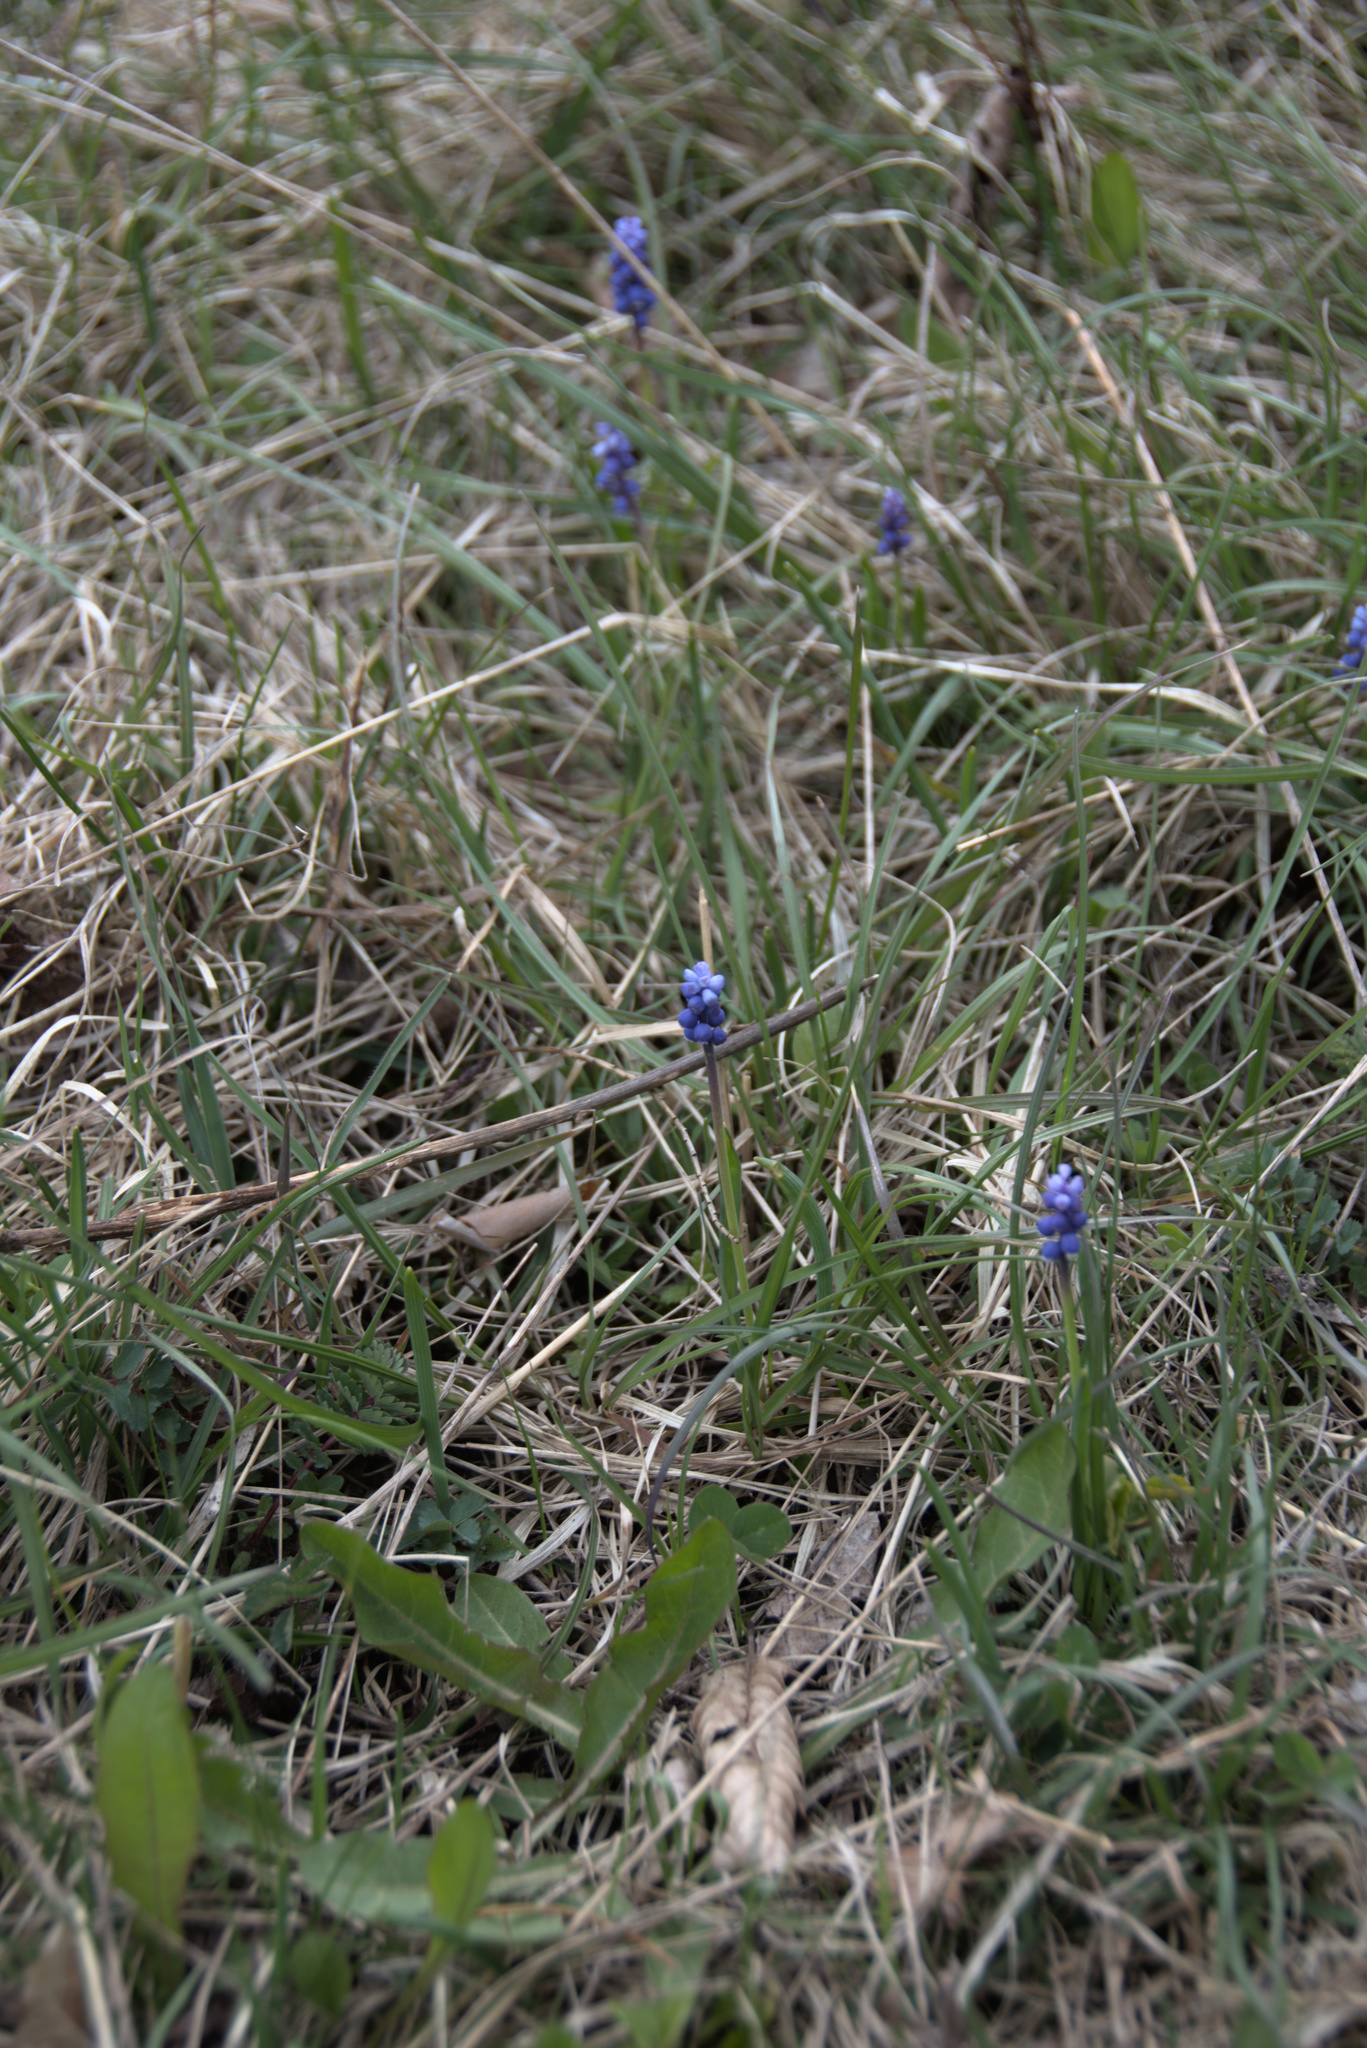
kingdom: Plantae
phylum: Tracheophyta
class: Liliopsida
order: Asparagales
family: Asparagaceae
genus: Muscari
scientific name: Muscari botryoides
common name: Compact grape-hyacinth
